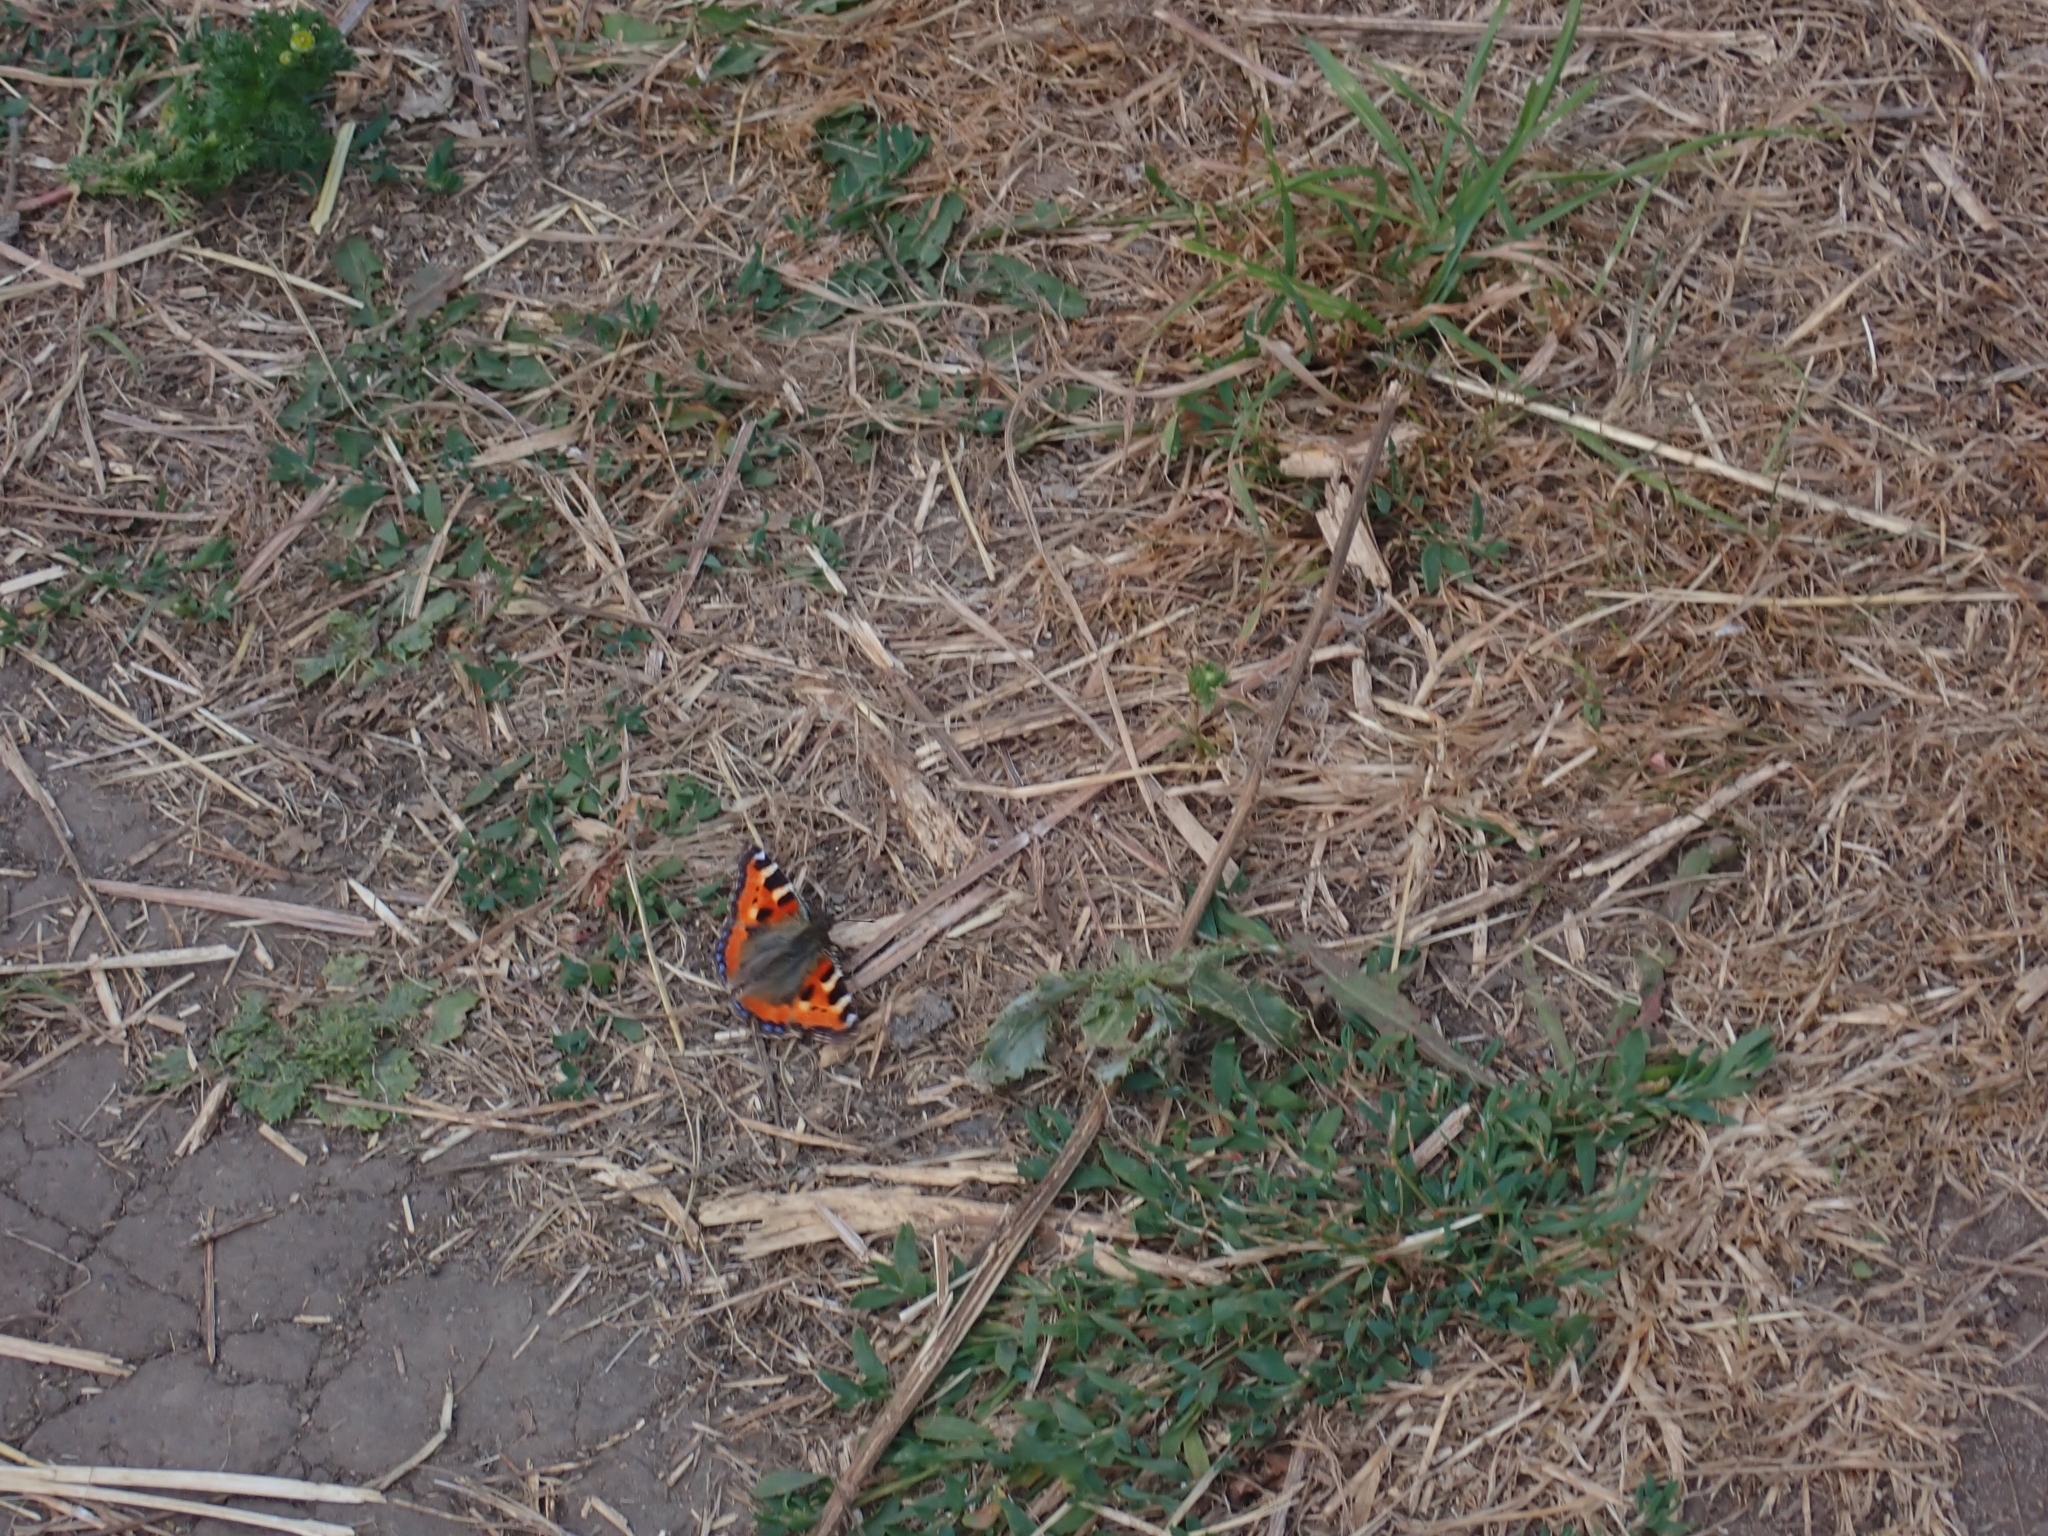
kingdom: Animalia
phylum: Arthropoda
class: Insecta
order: Lepidoptera
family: Nymphalidae
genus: Aglais
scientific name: Aglais urticae
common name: Small tortoiseshell
